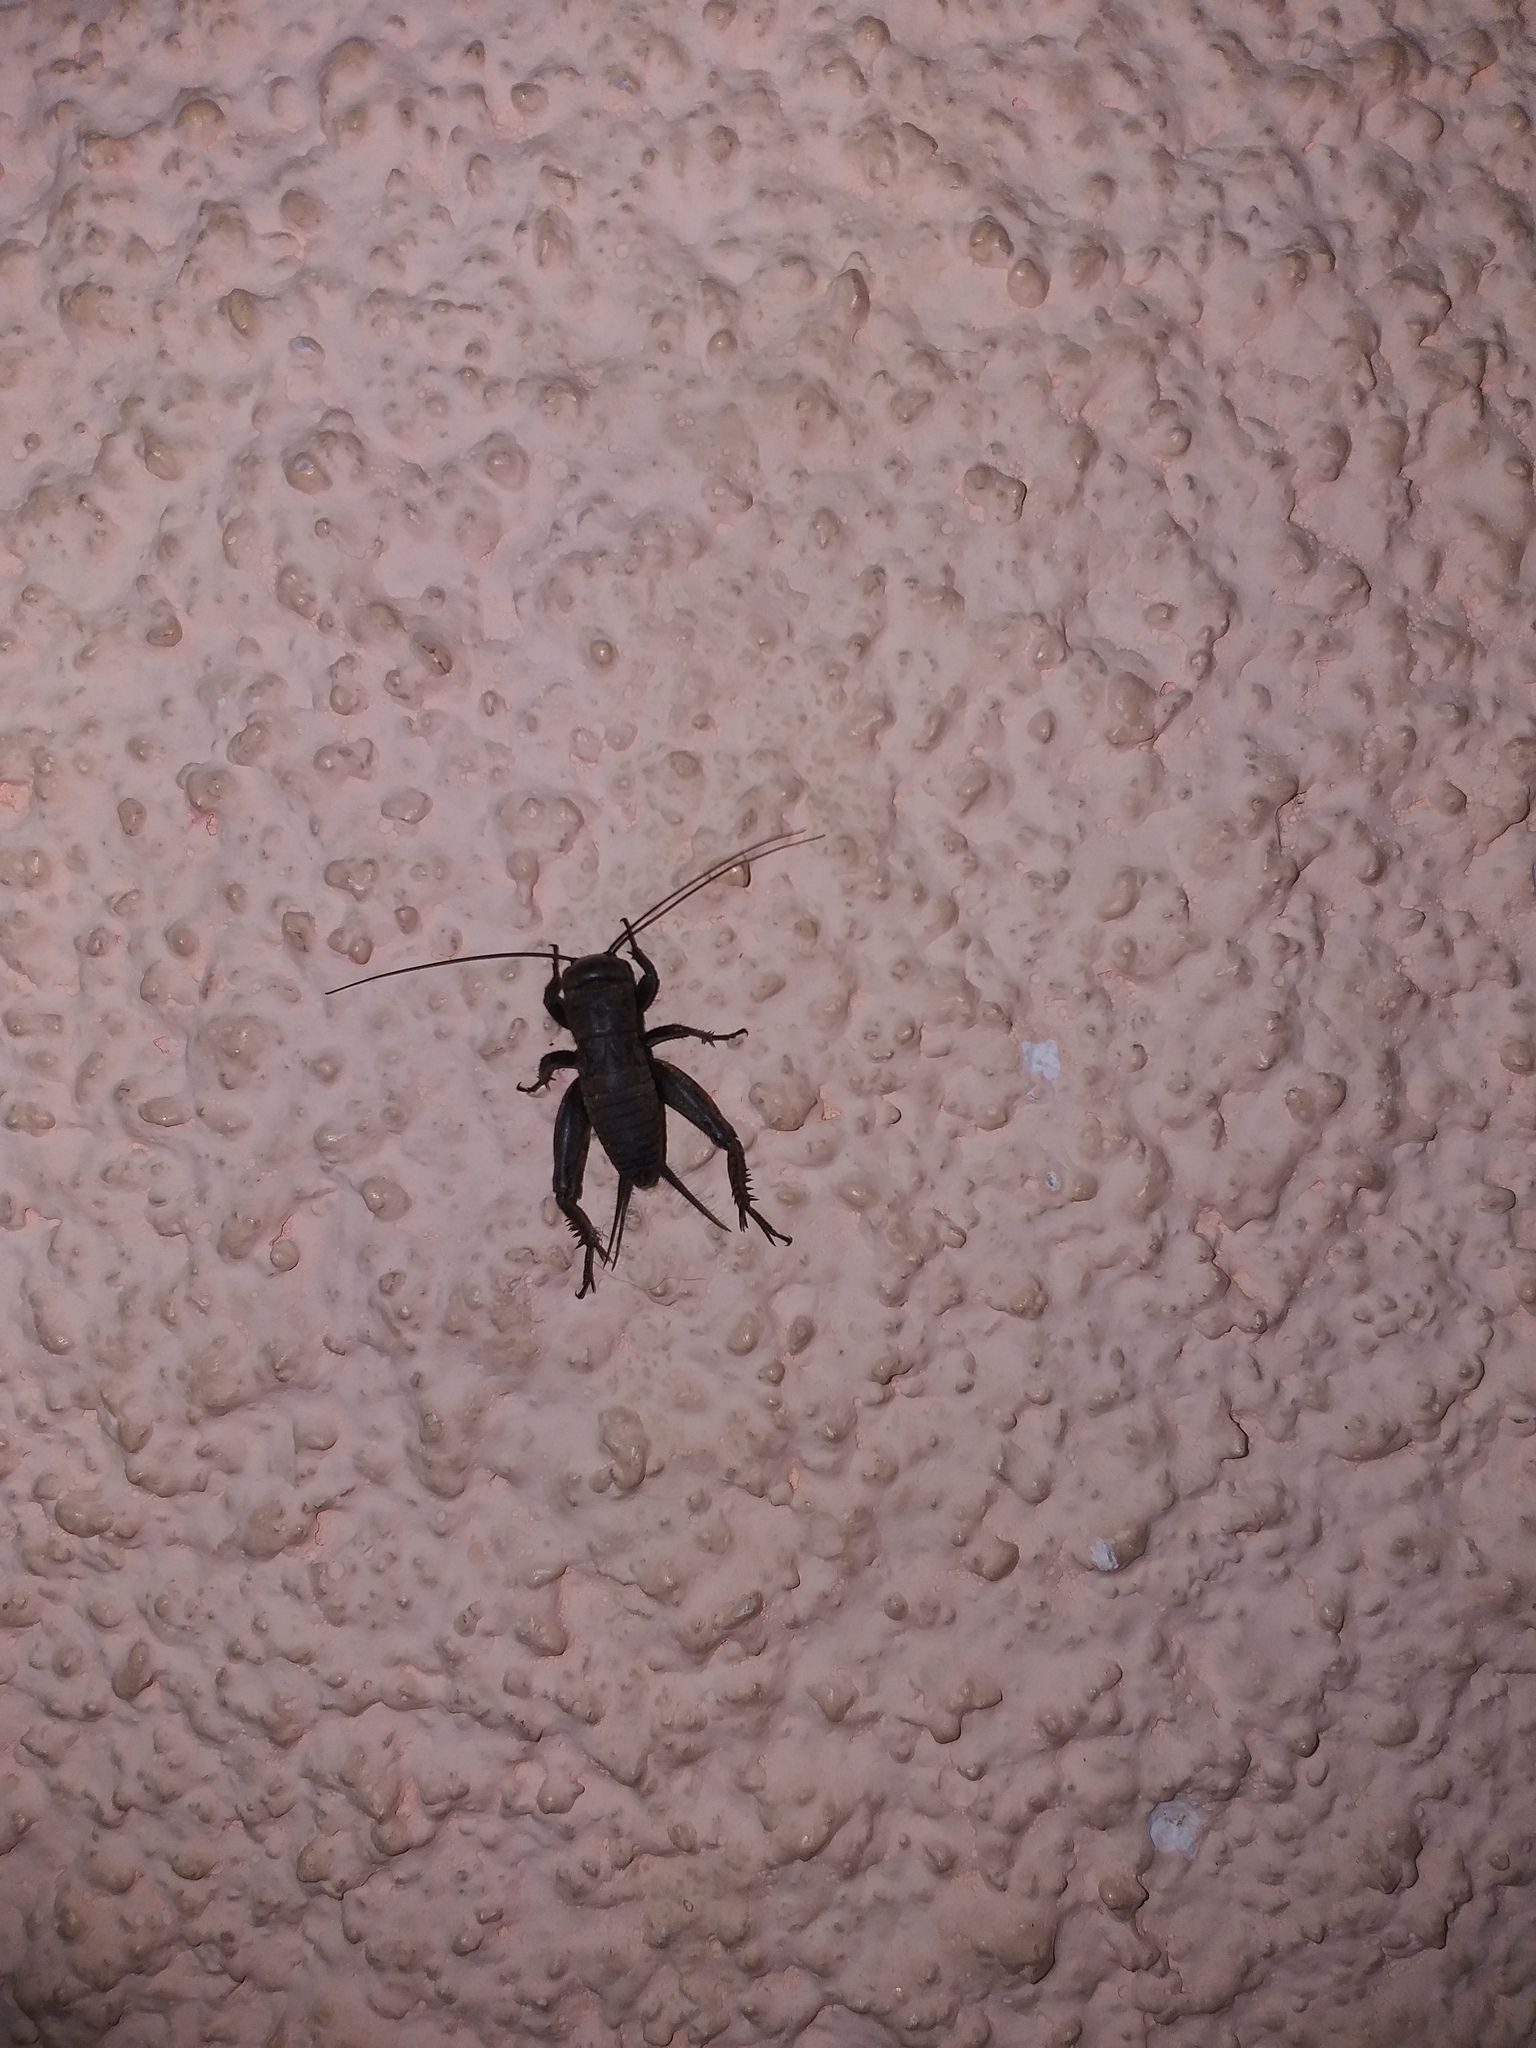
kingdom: Animalia
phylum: Arthropoda
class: Insecta
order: Orthoptera
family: Gryllidae
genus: Melanogryllus
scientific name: Melanogryllus desertus
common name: Desert cricket
